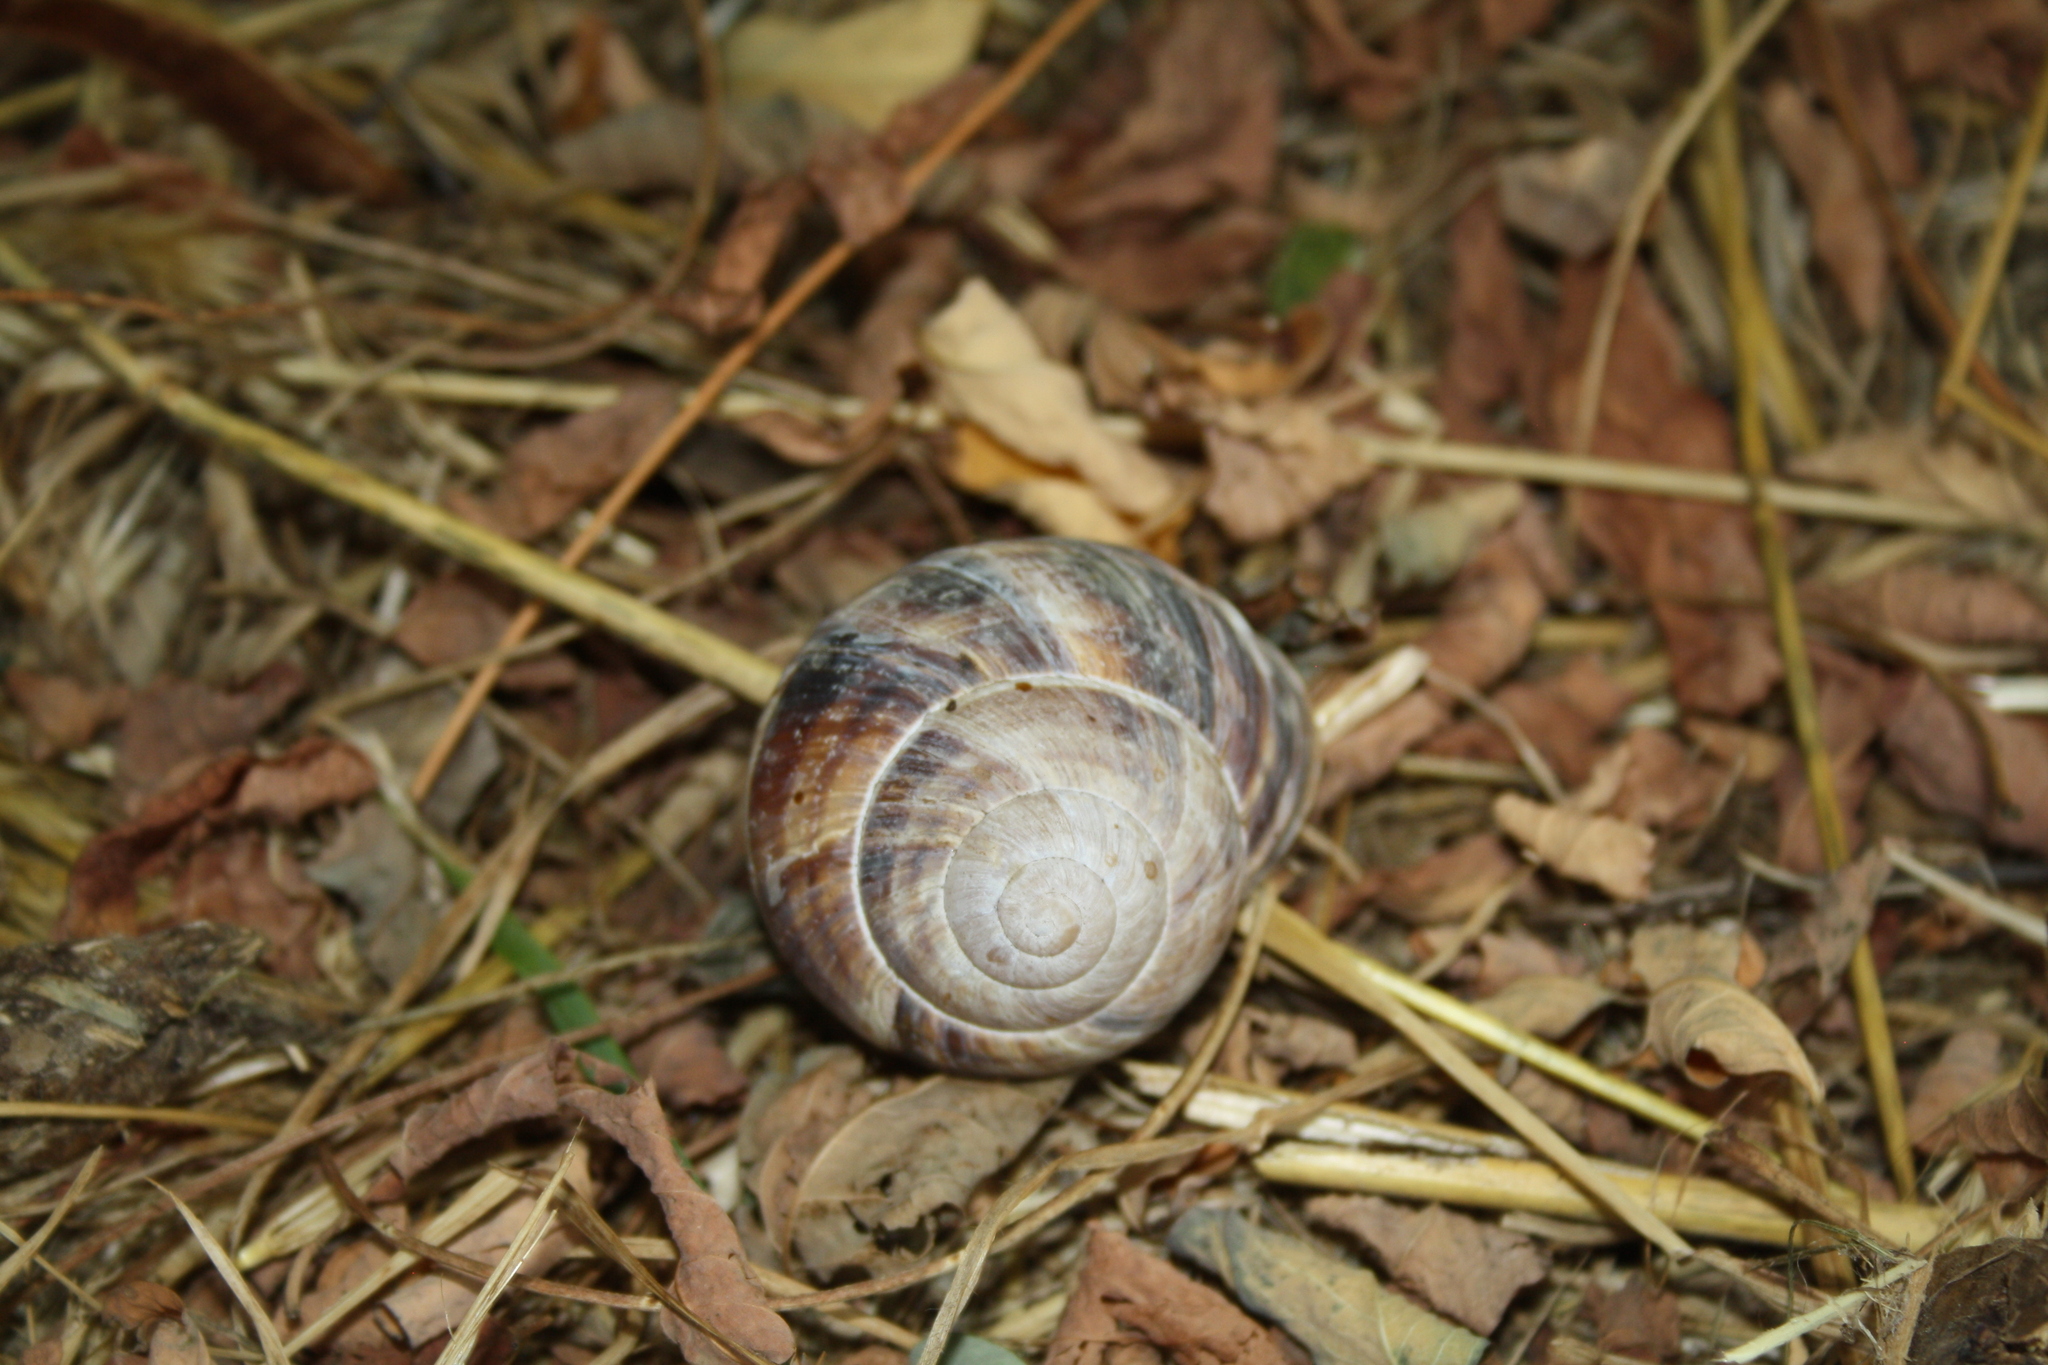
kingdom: Animalia
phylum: Mollusca
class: Gastropoda
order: Stylommatophora
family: Helicidae
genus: Helix
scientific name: Helix lucorum
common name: Turkish snail
